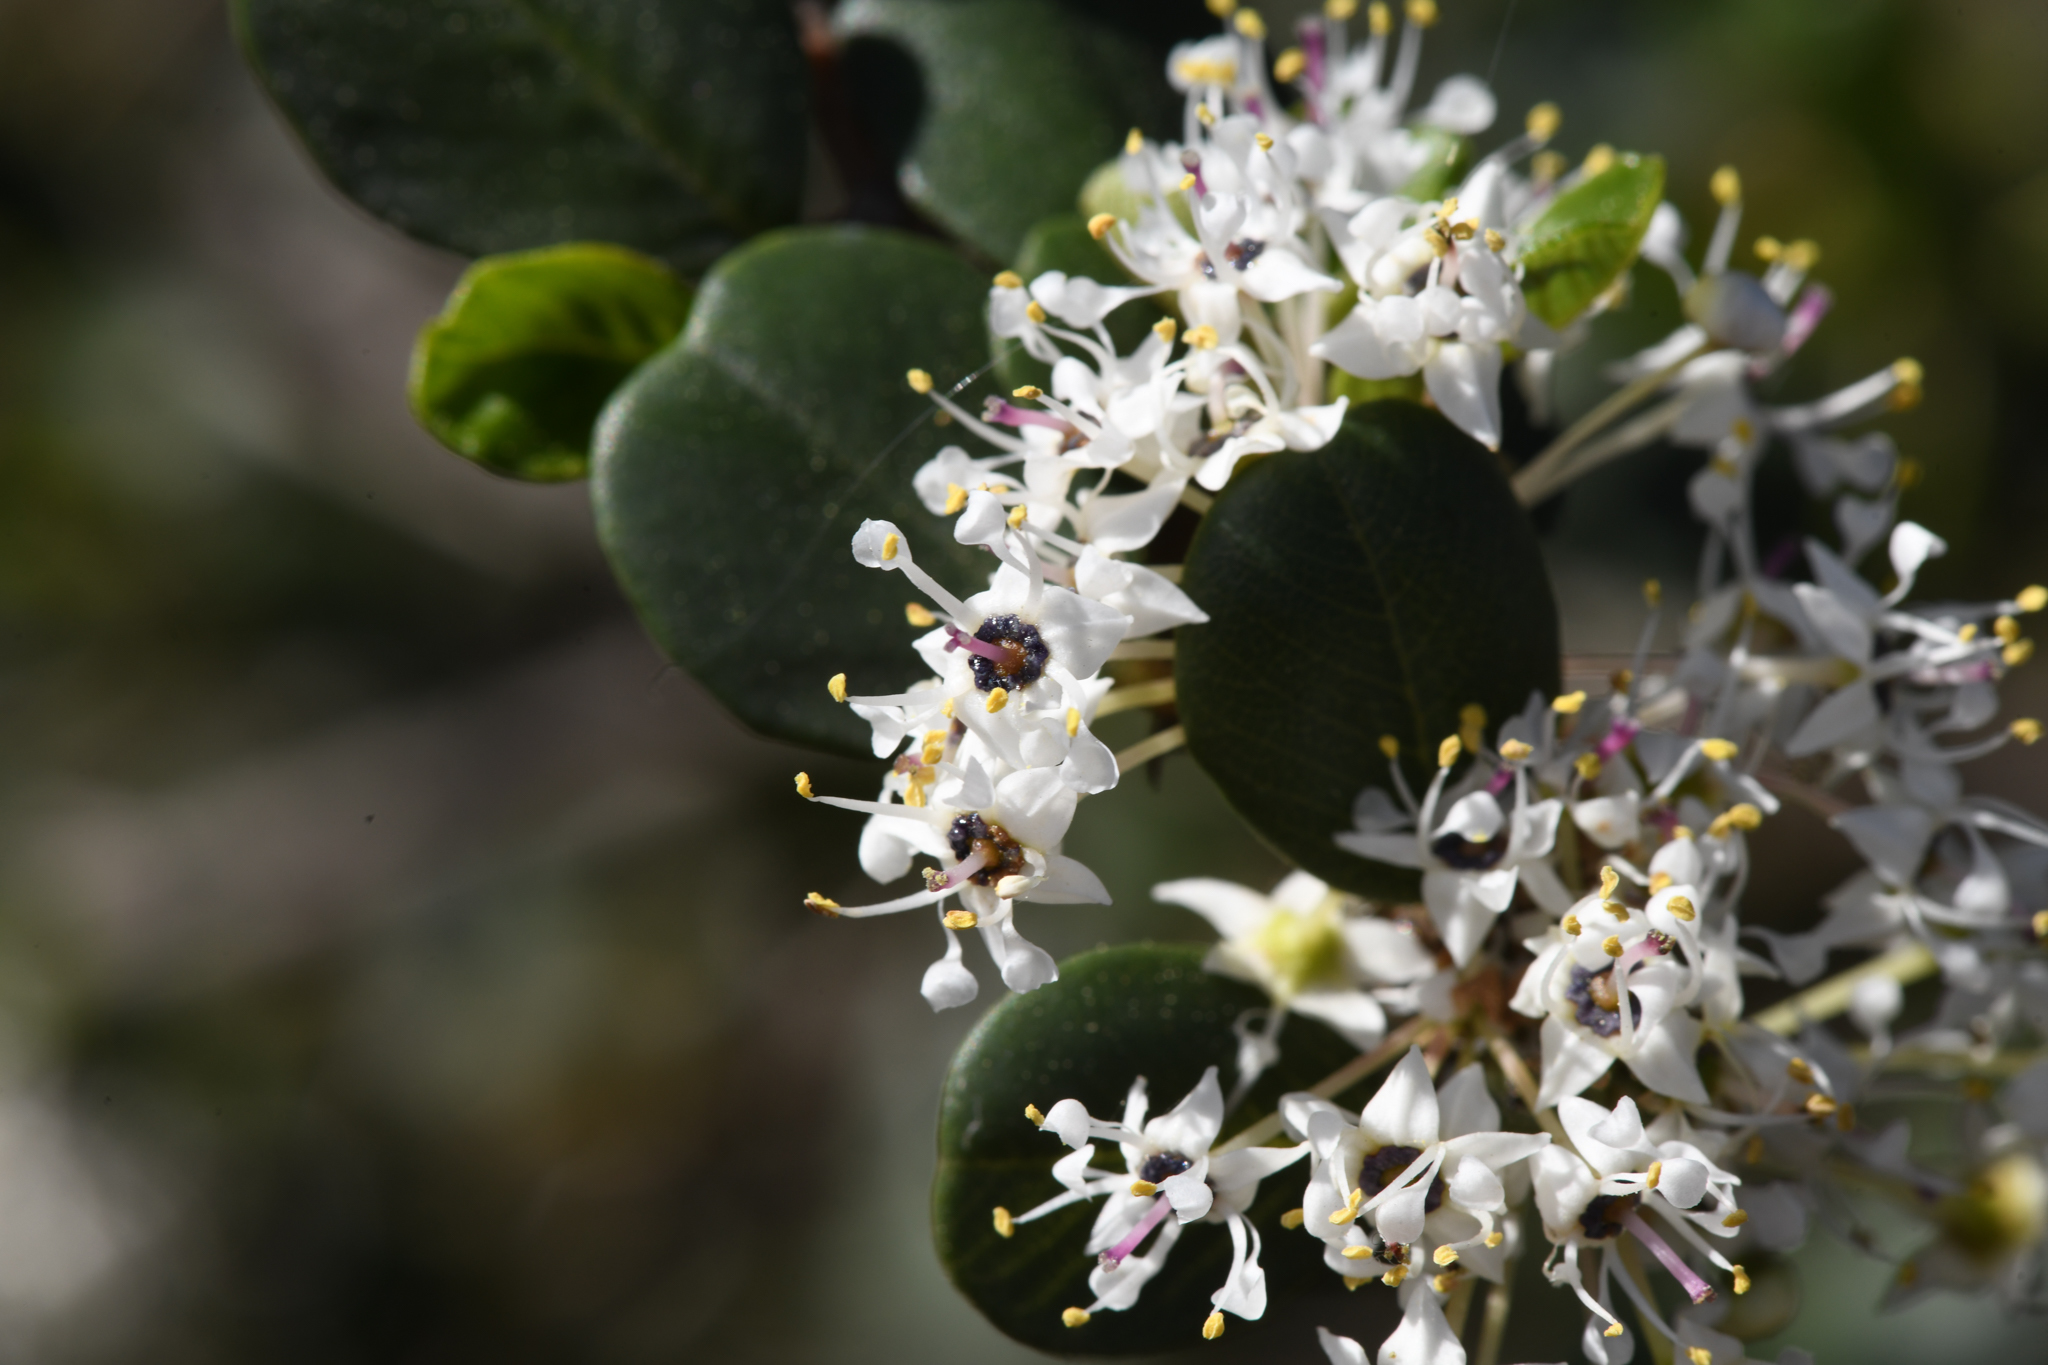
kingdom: Plantae
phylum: Tracheophyta
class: Magnoliopsida
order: Rosales
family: Rhamnaceae
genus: Ceanothus
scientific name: Ceanothus verrucosus
